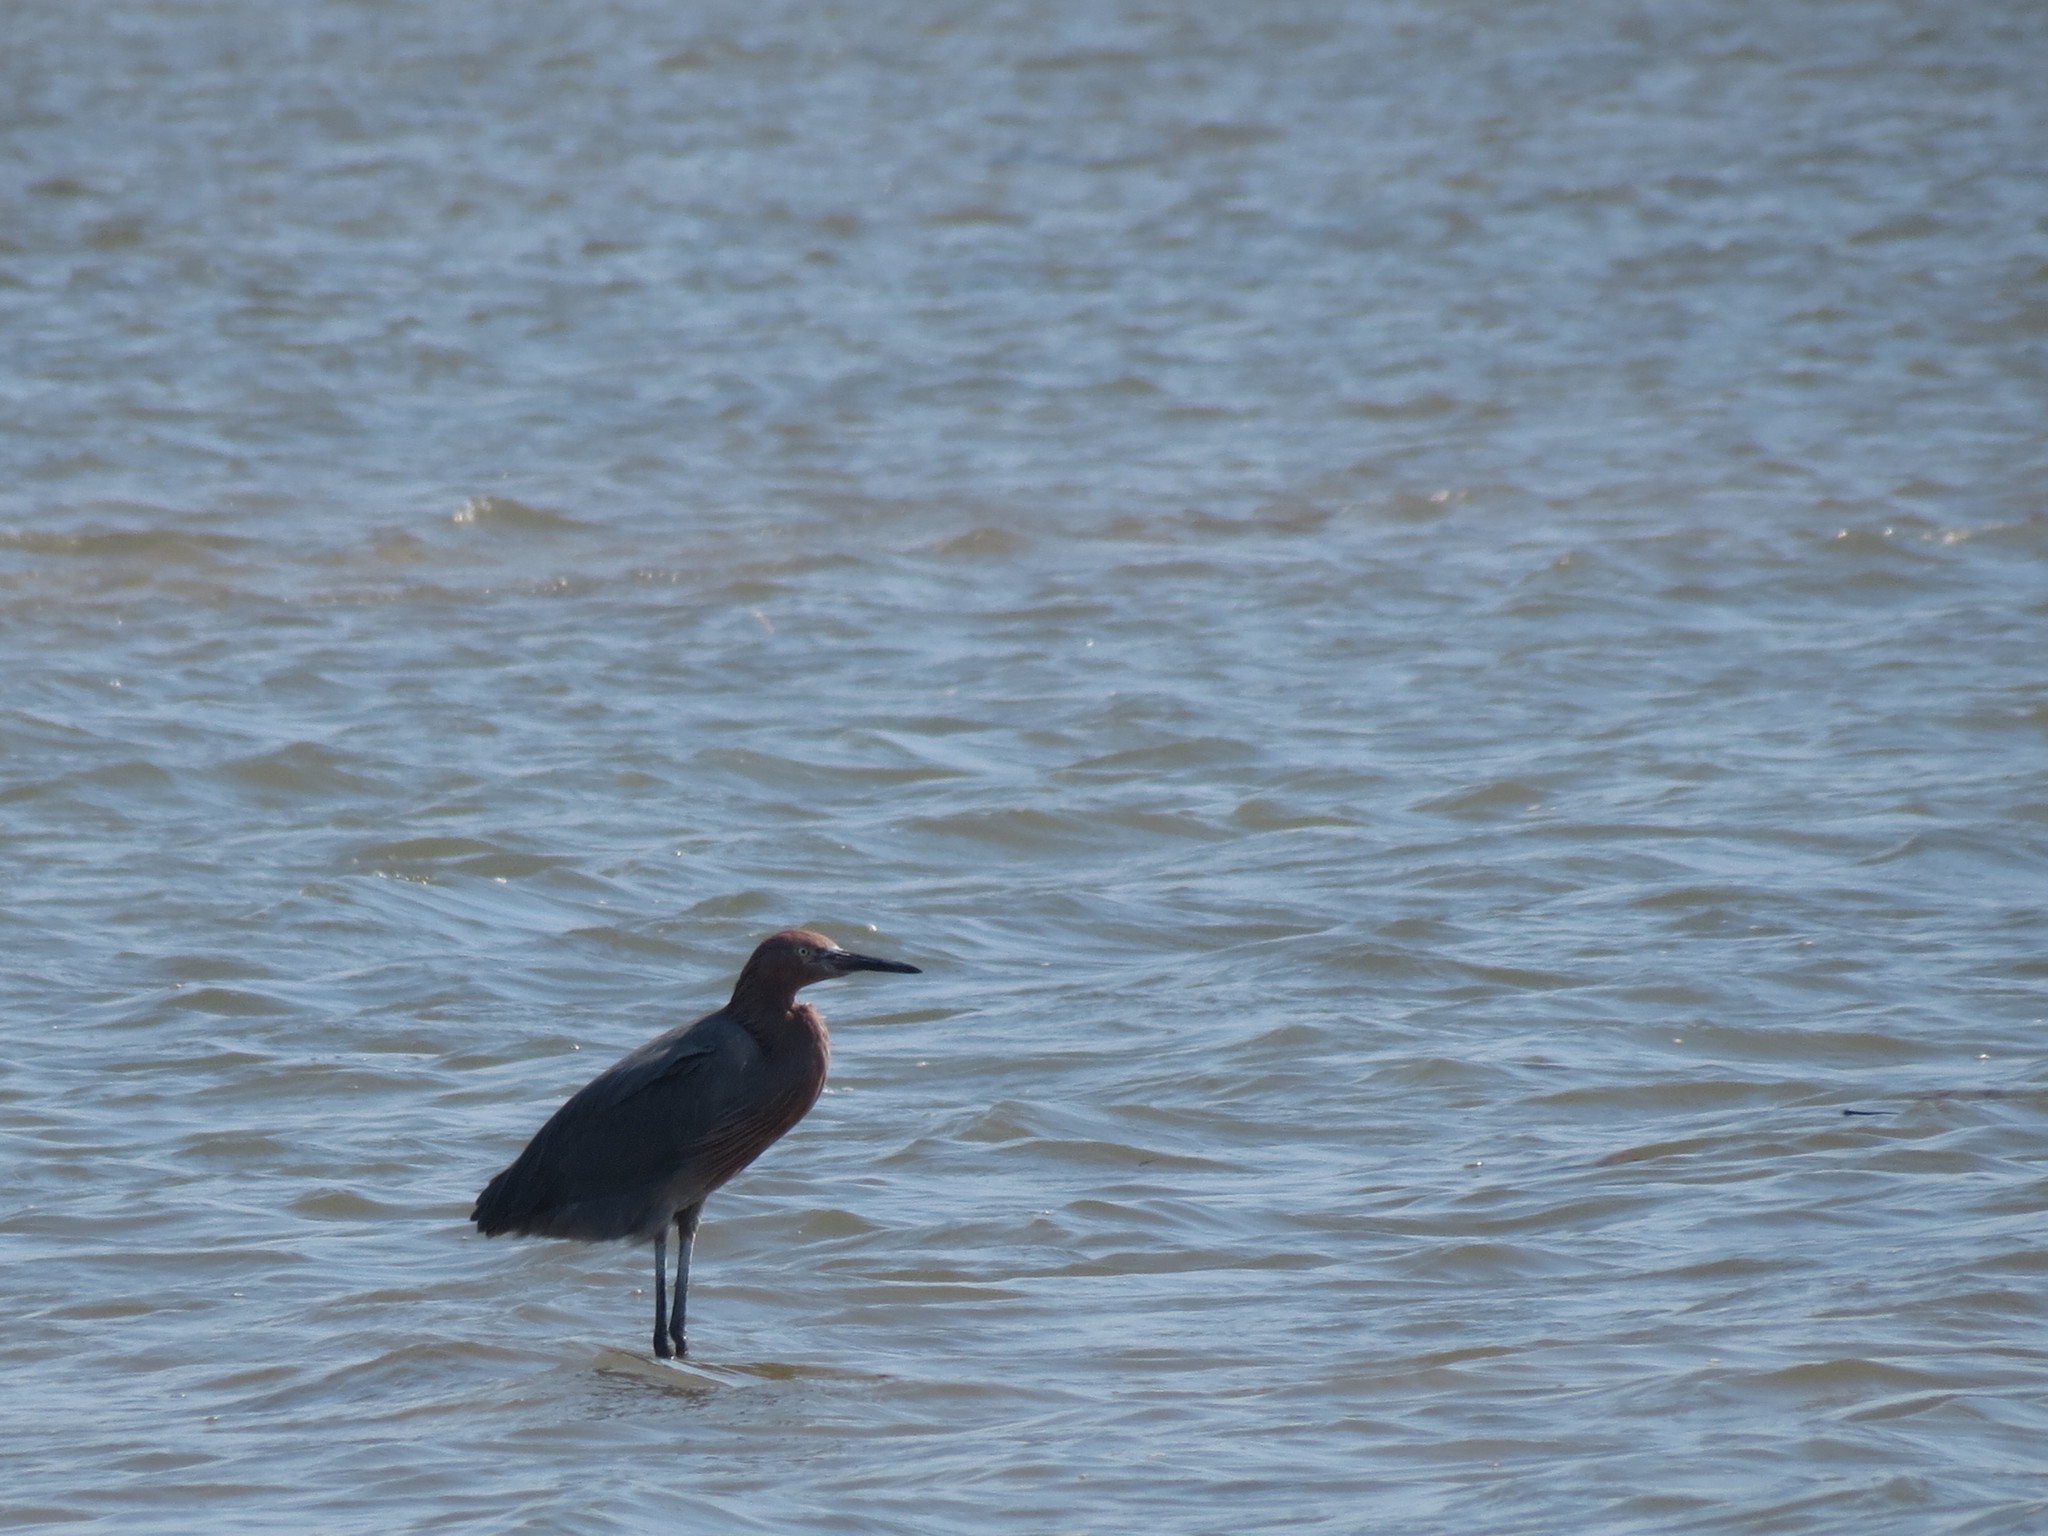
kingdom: Animalia
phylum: Chordata
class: Aves
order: Pelecaniformes
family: Ardeidae
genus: Egretta
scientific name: Egretta rufescens
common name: Reddish egret
